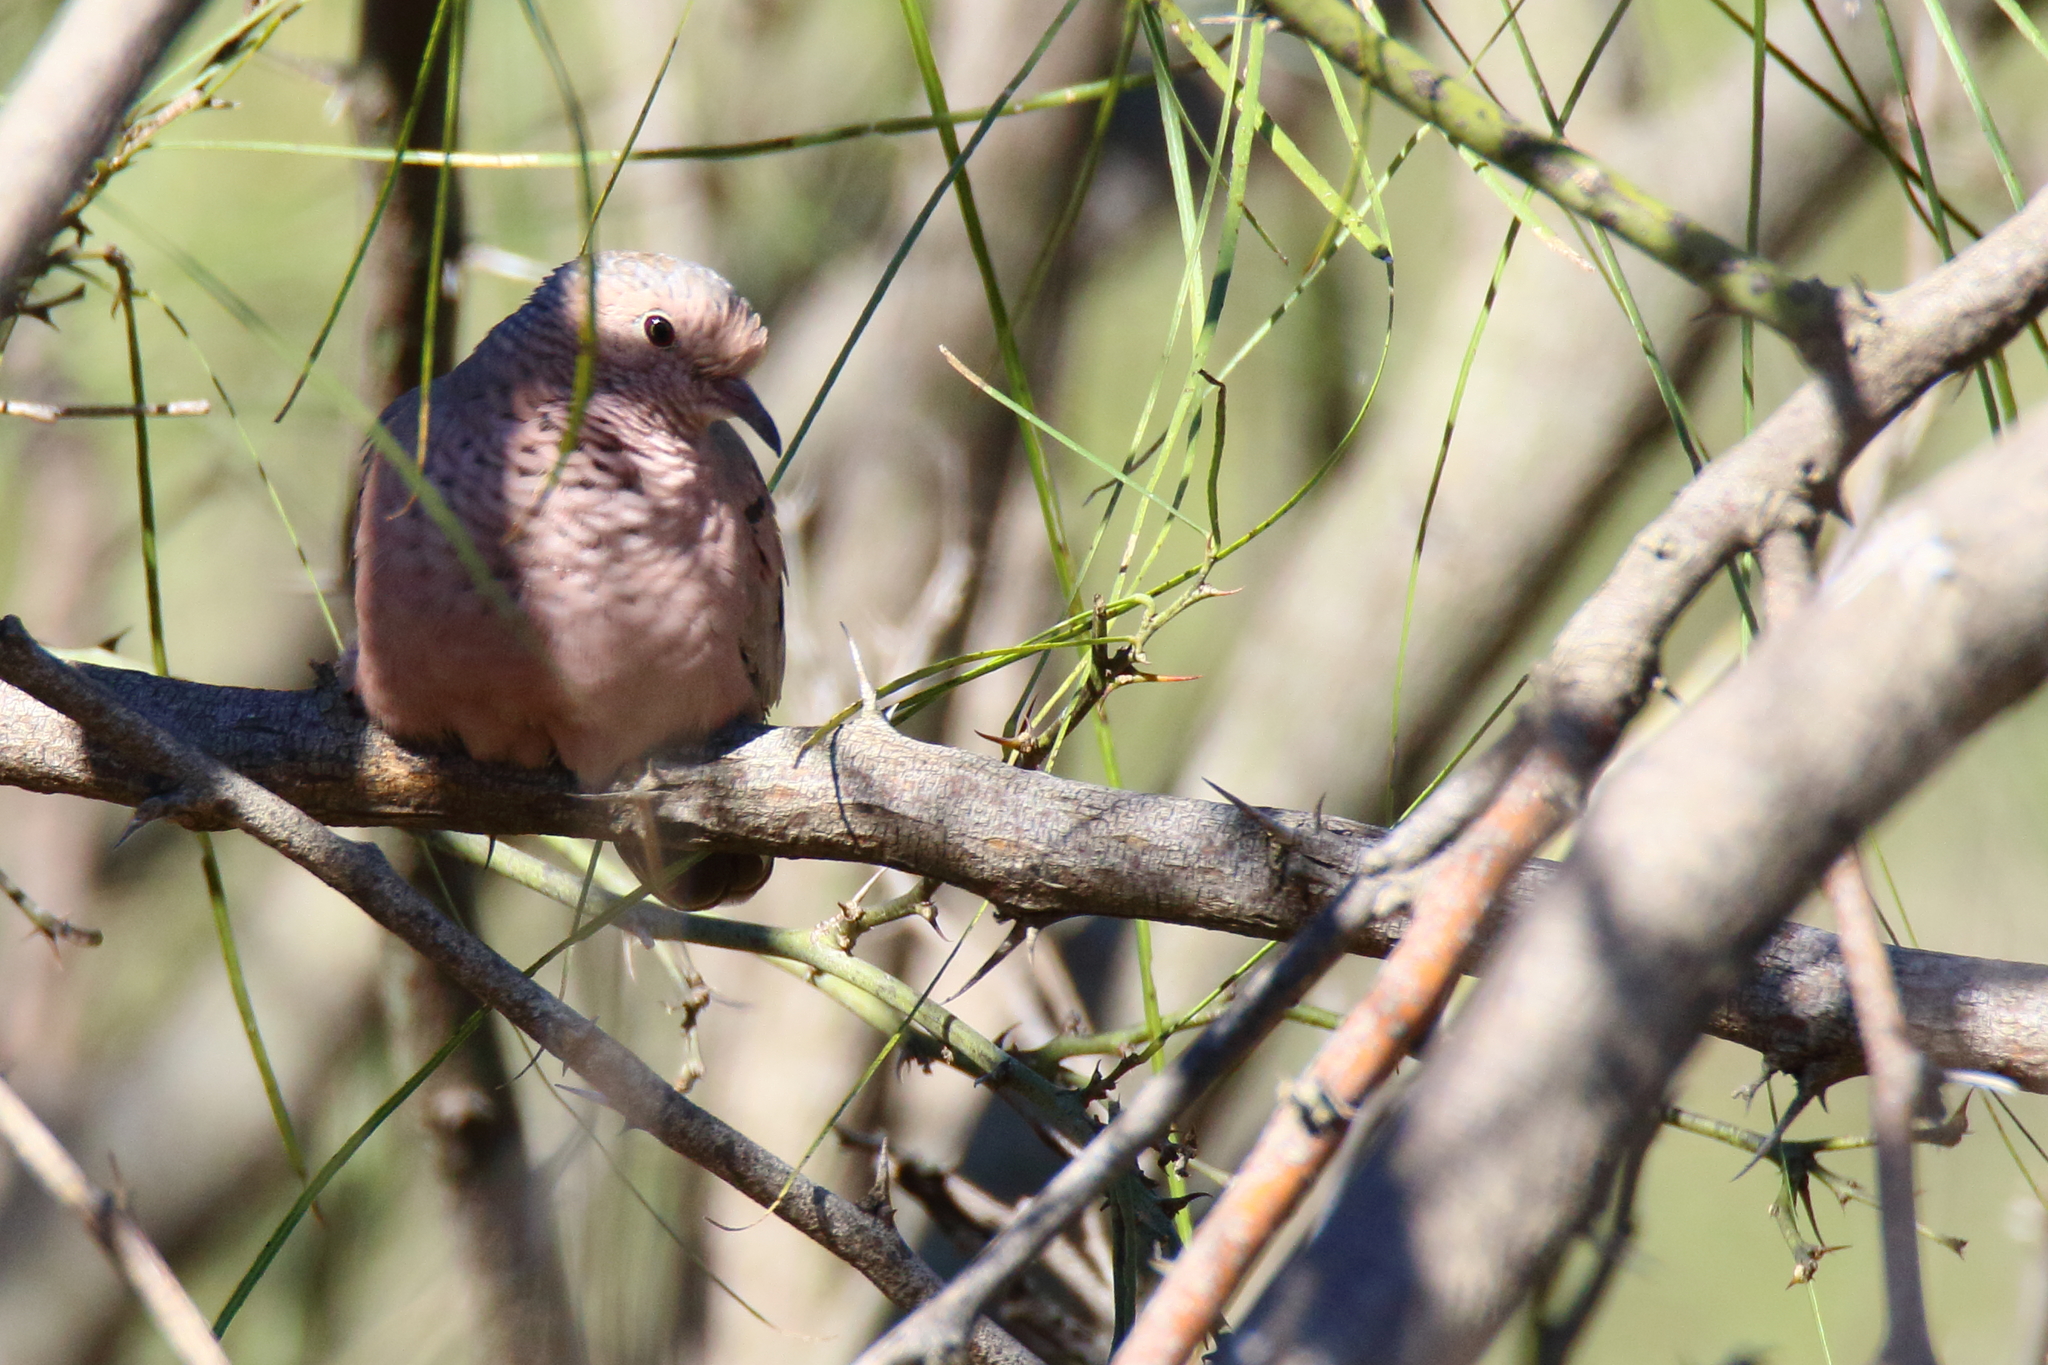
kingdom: Animalia
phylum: Chordata
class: Aves
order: Columbiformes
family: Columbidae
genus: Columbina
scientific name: Columbina passerina
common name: Common ground-dove
